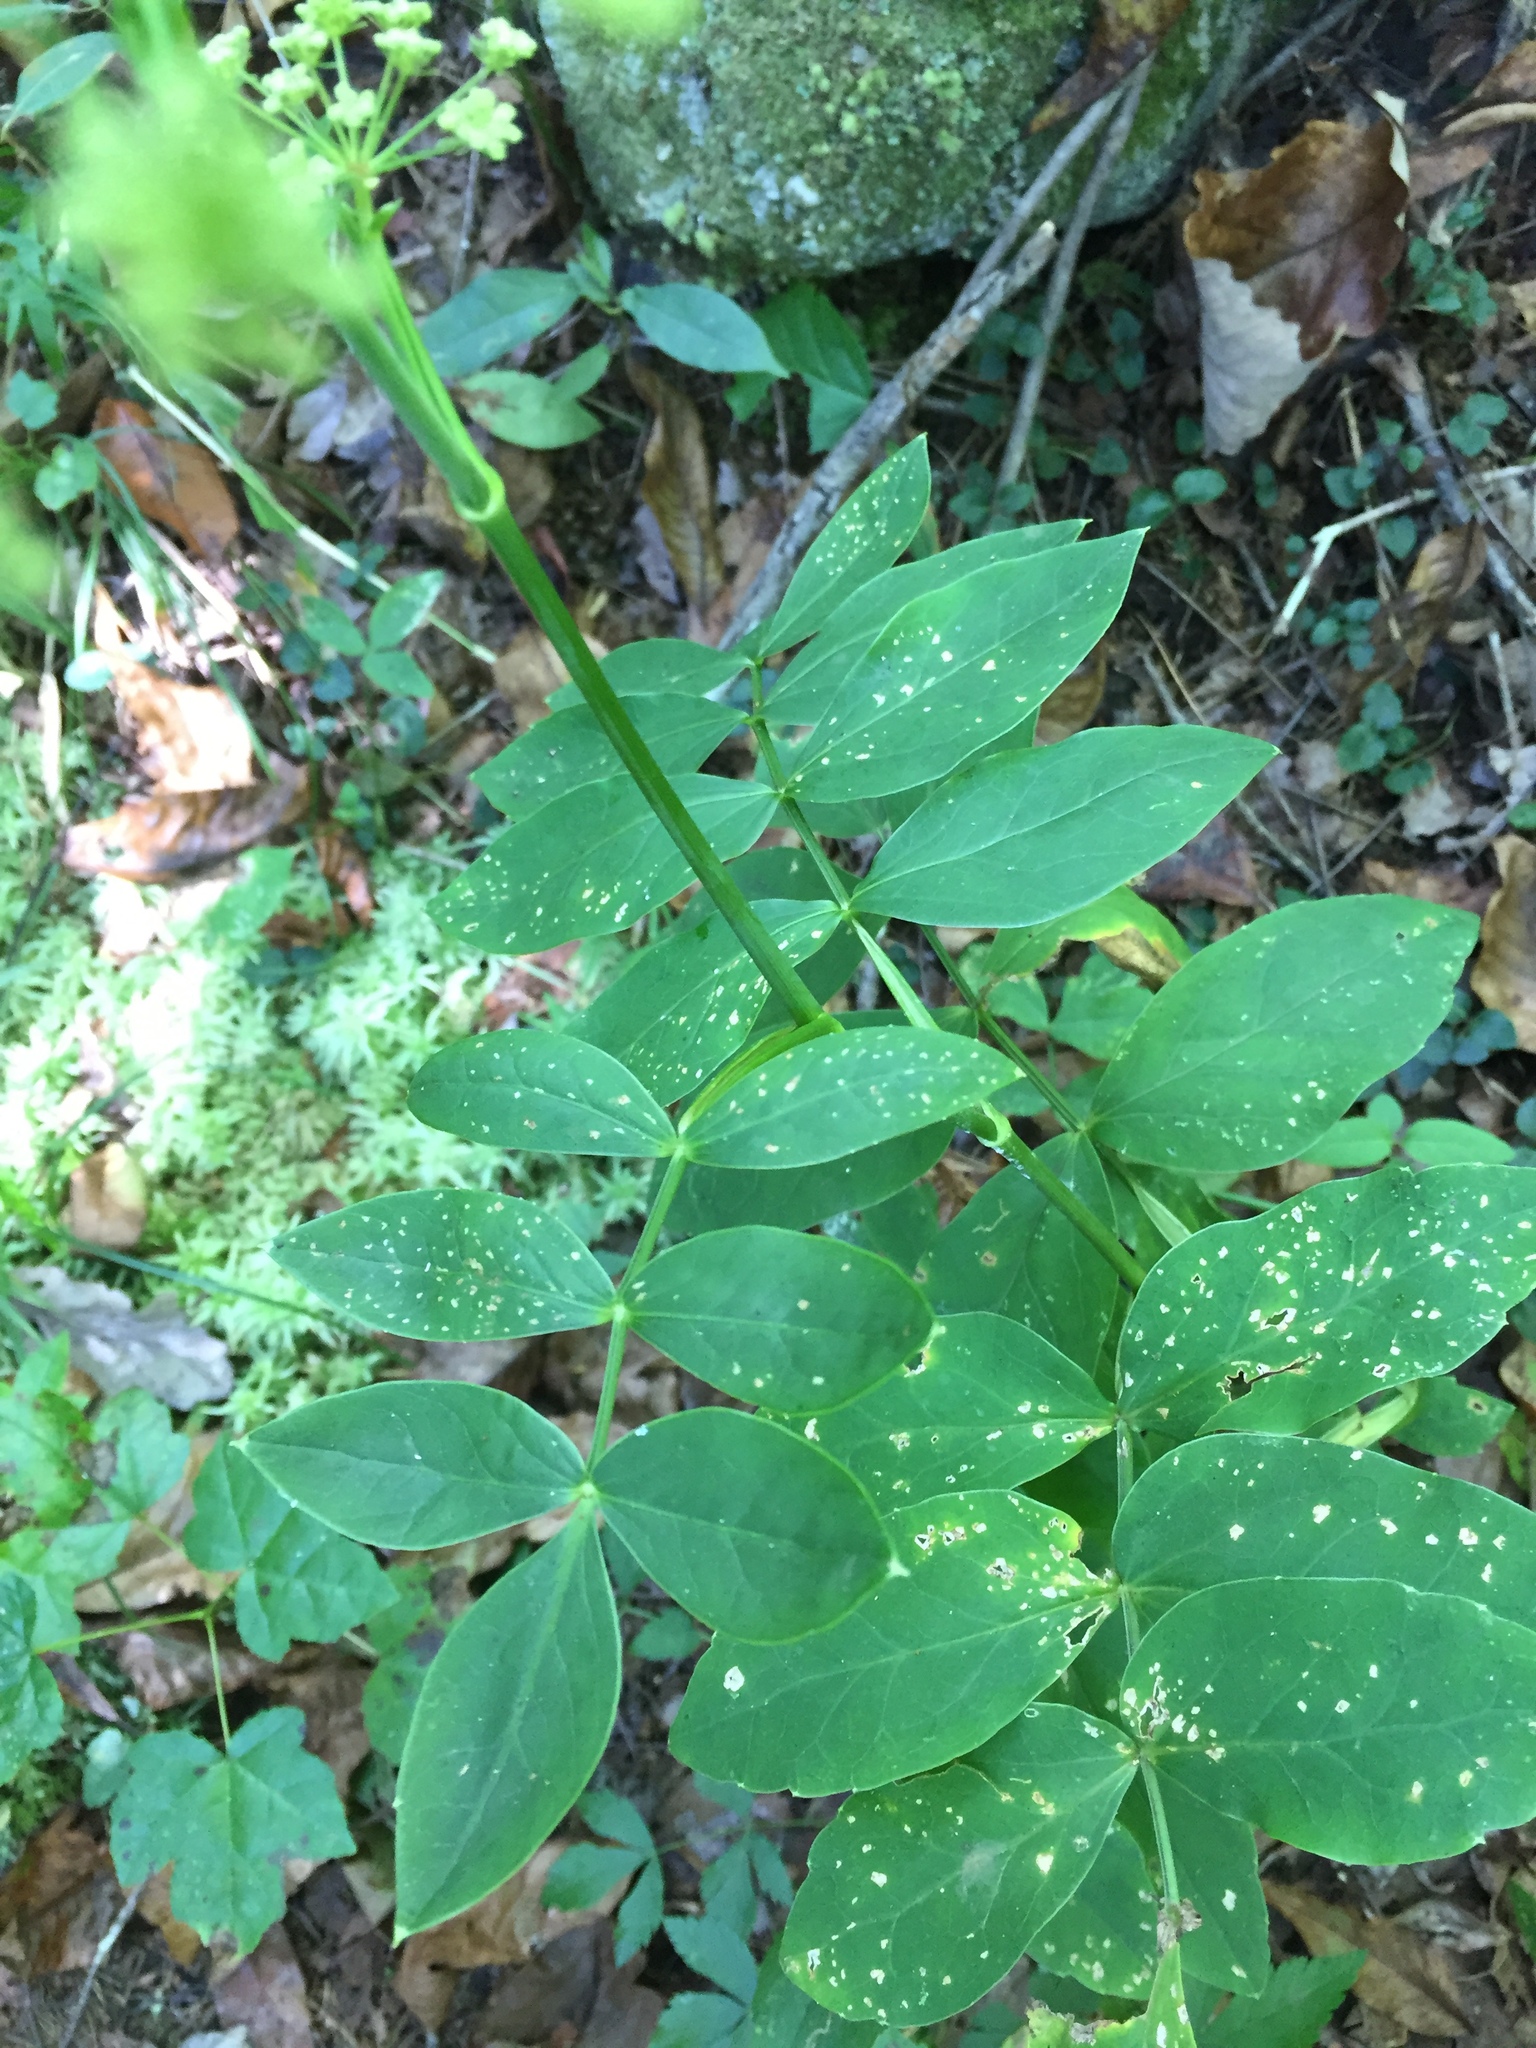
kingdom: Plantae
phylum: Tracheophyta
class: Magnoliopsida
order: Apiales
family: Apiaceae
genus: Oxypolis
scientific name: Oxypolis rigidior
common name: Cowbane
